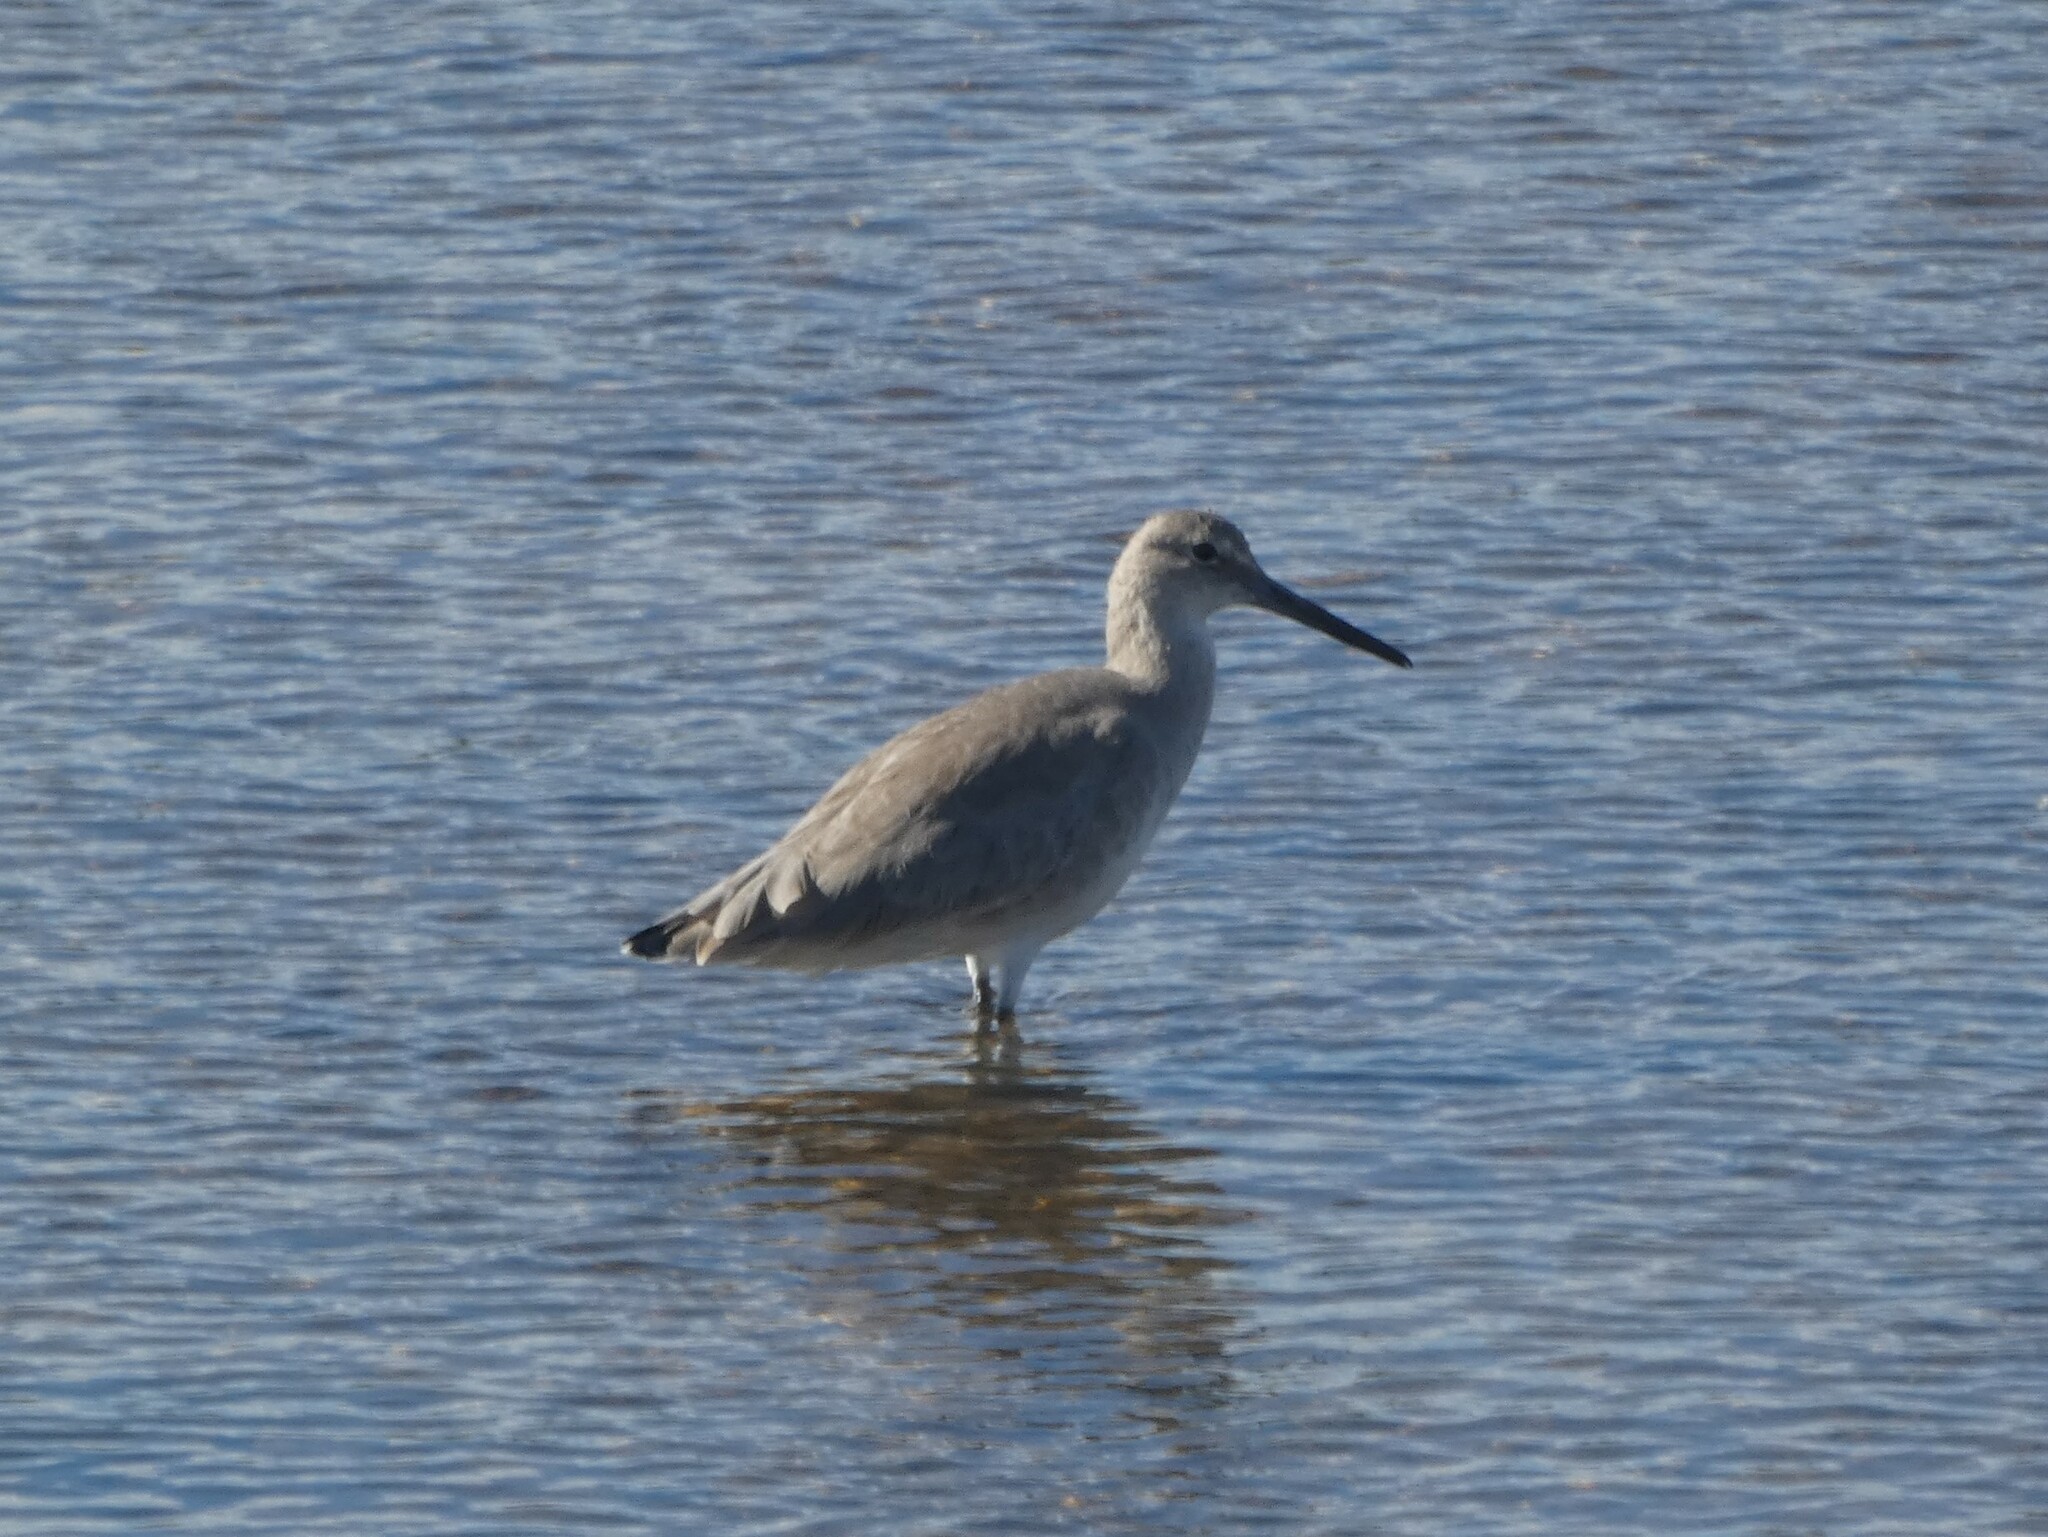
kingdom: Animalia
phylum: Chordata
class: Aves
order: Charadriiformes
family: Scolopacidae
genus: Tringa
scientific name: Tringa semipalmata
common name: Willet
